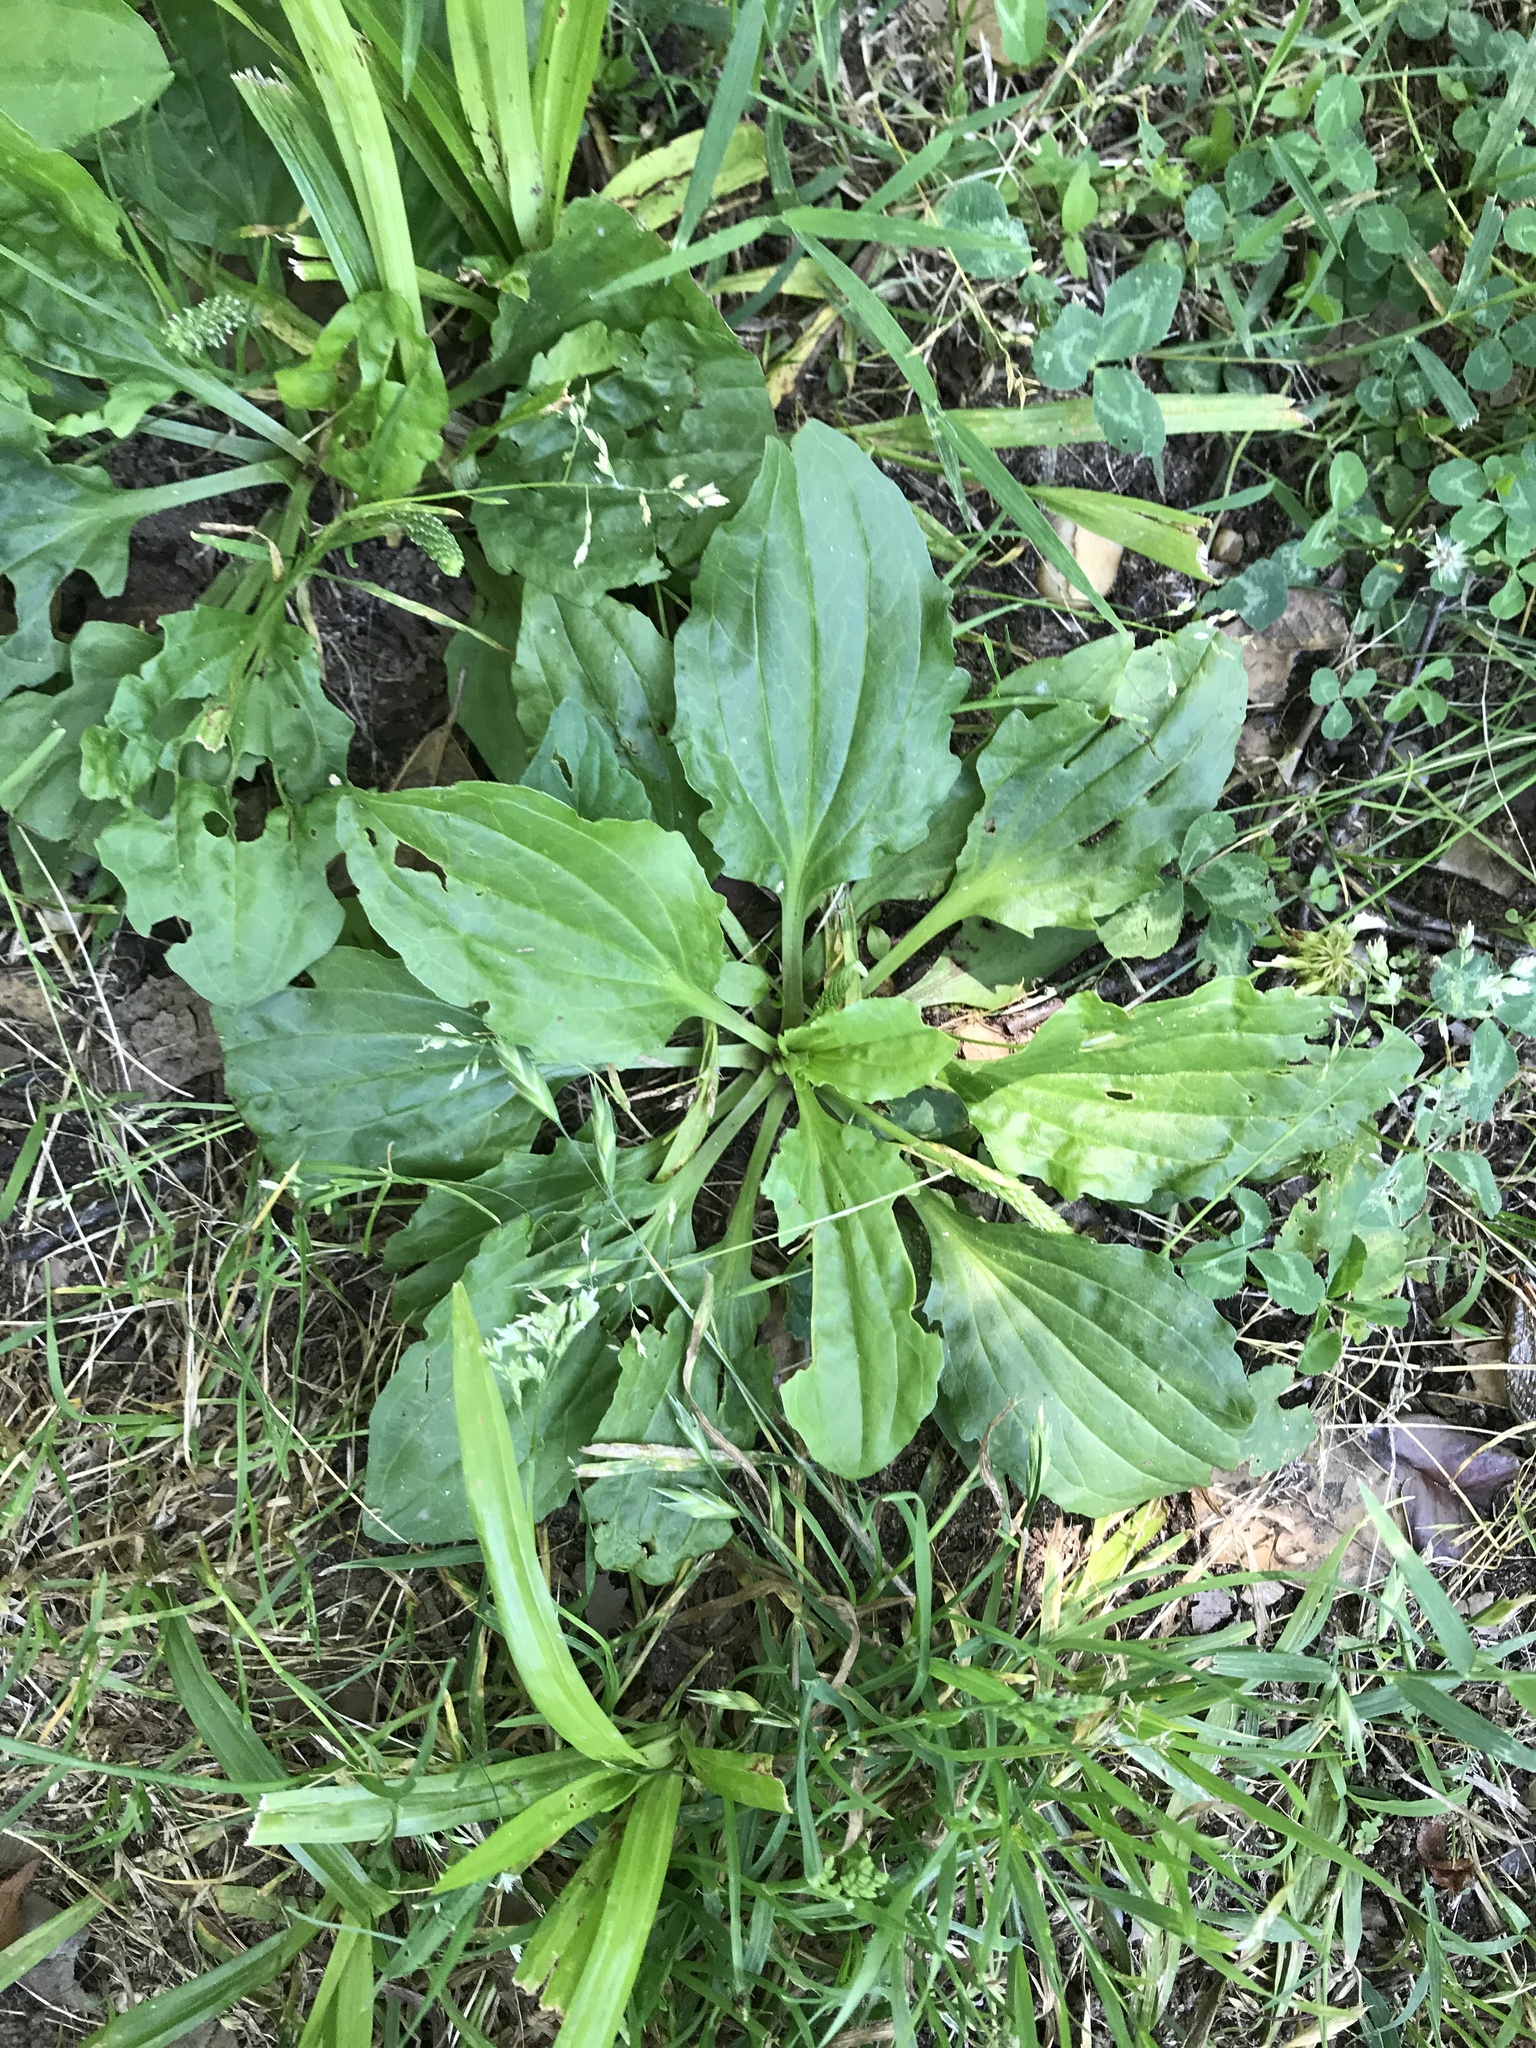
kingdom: Plantae
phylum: Tracheophyta
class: Magnoliopsida
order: Lamiales
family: Plantaginaceae
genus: Plantago
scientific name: Plantago rugelii
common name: American plantain
